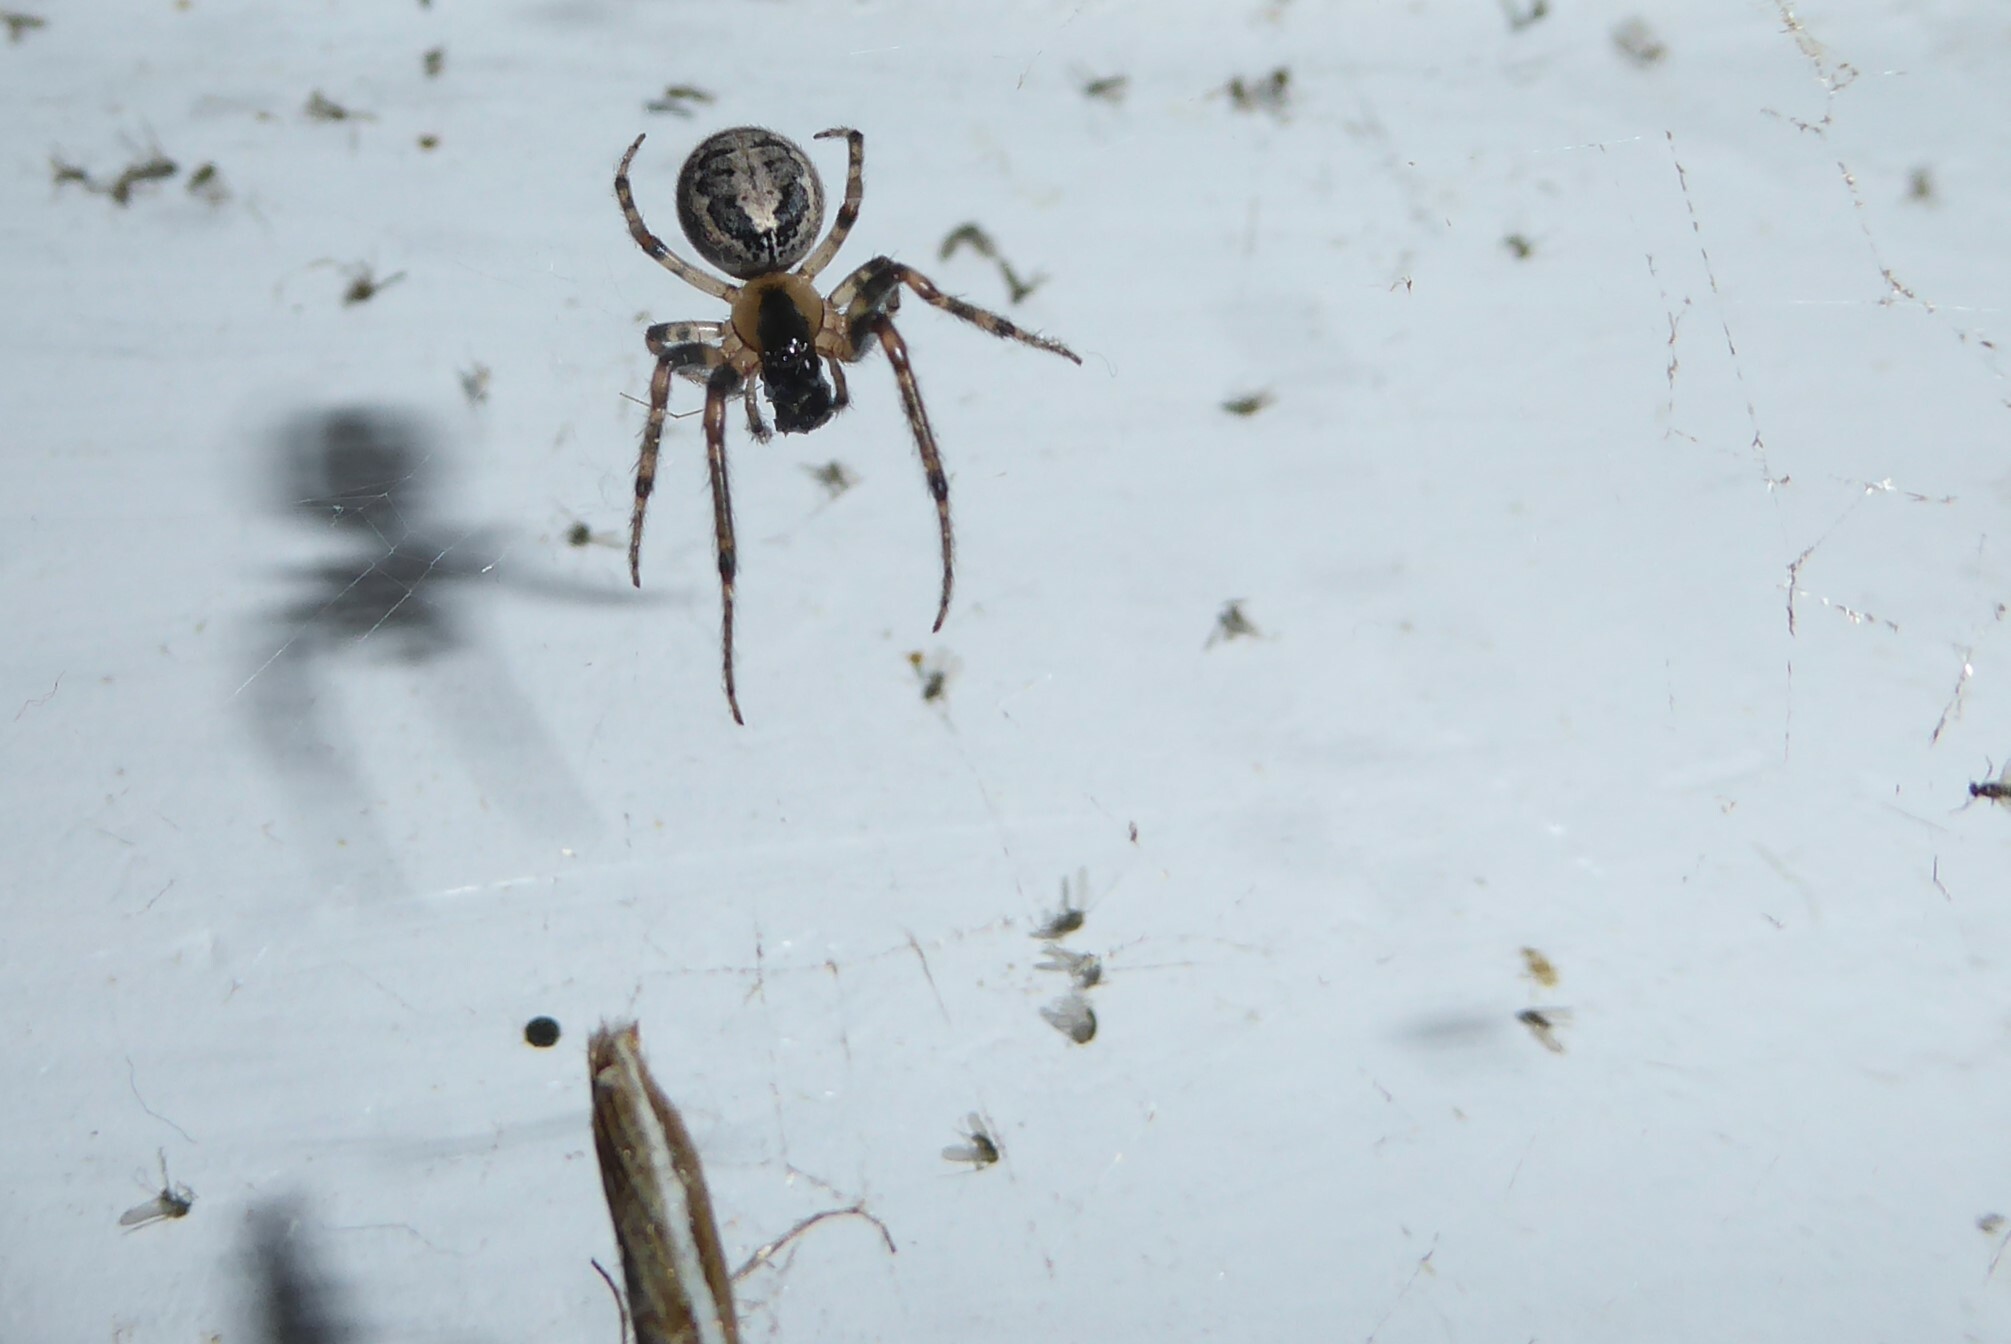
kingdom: Animalia
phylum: Arthropoda
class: Arachnida
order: Araneae
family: Araneidae
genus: Zygiella
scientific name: Zygiella x-notata
